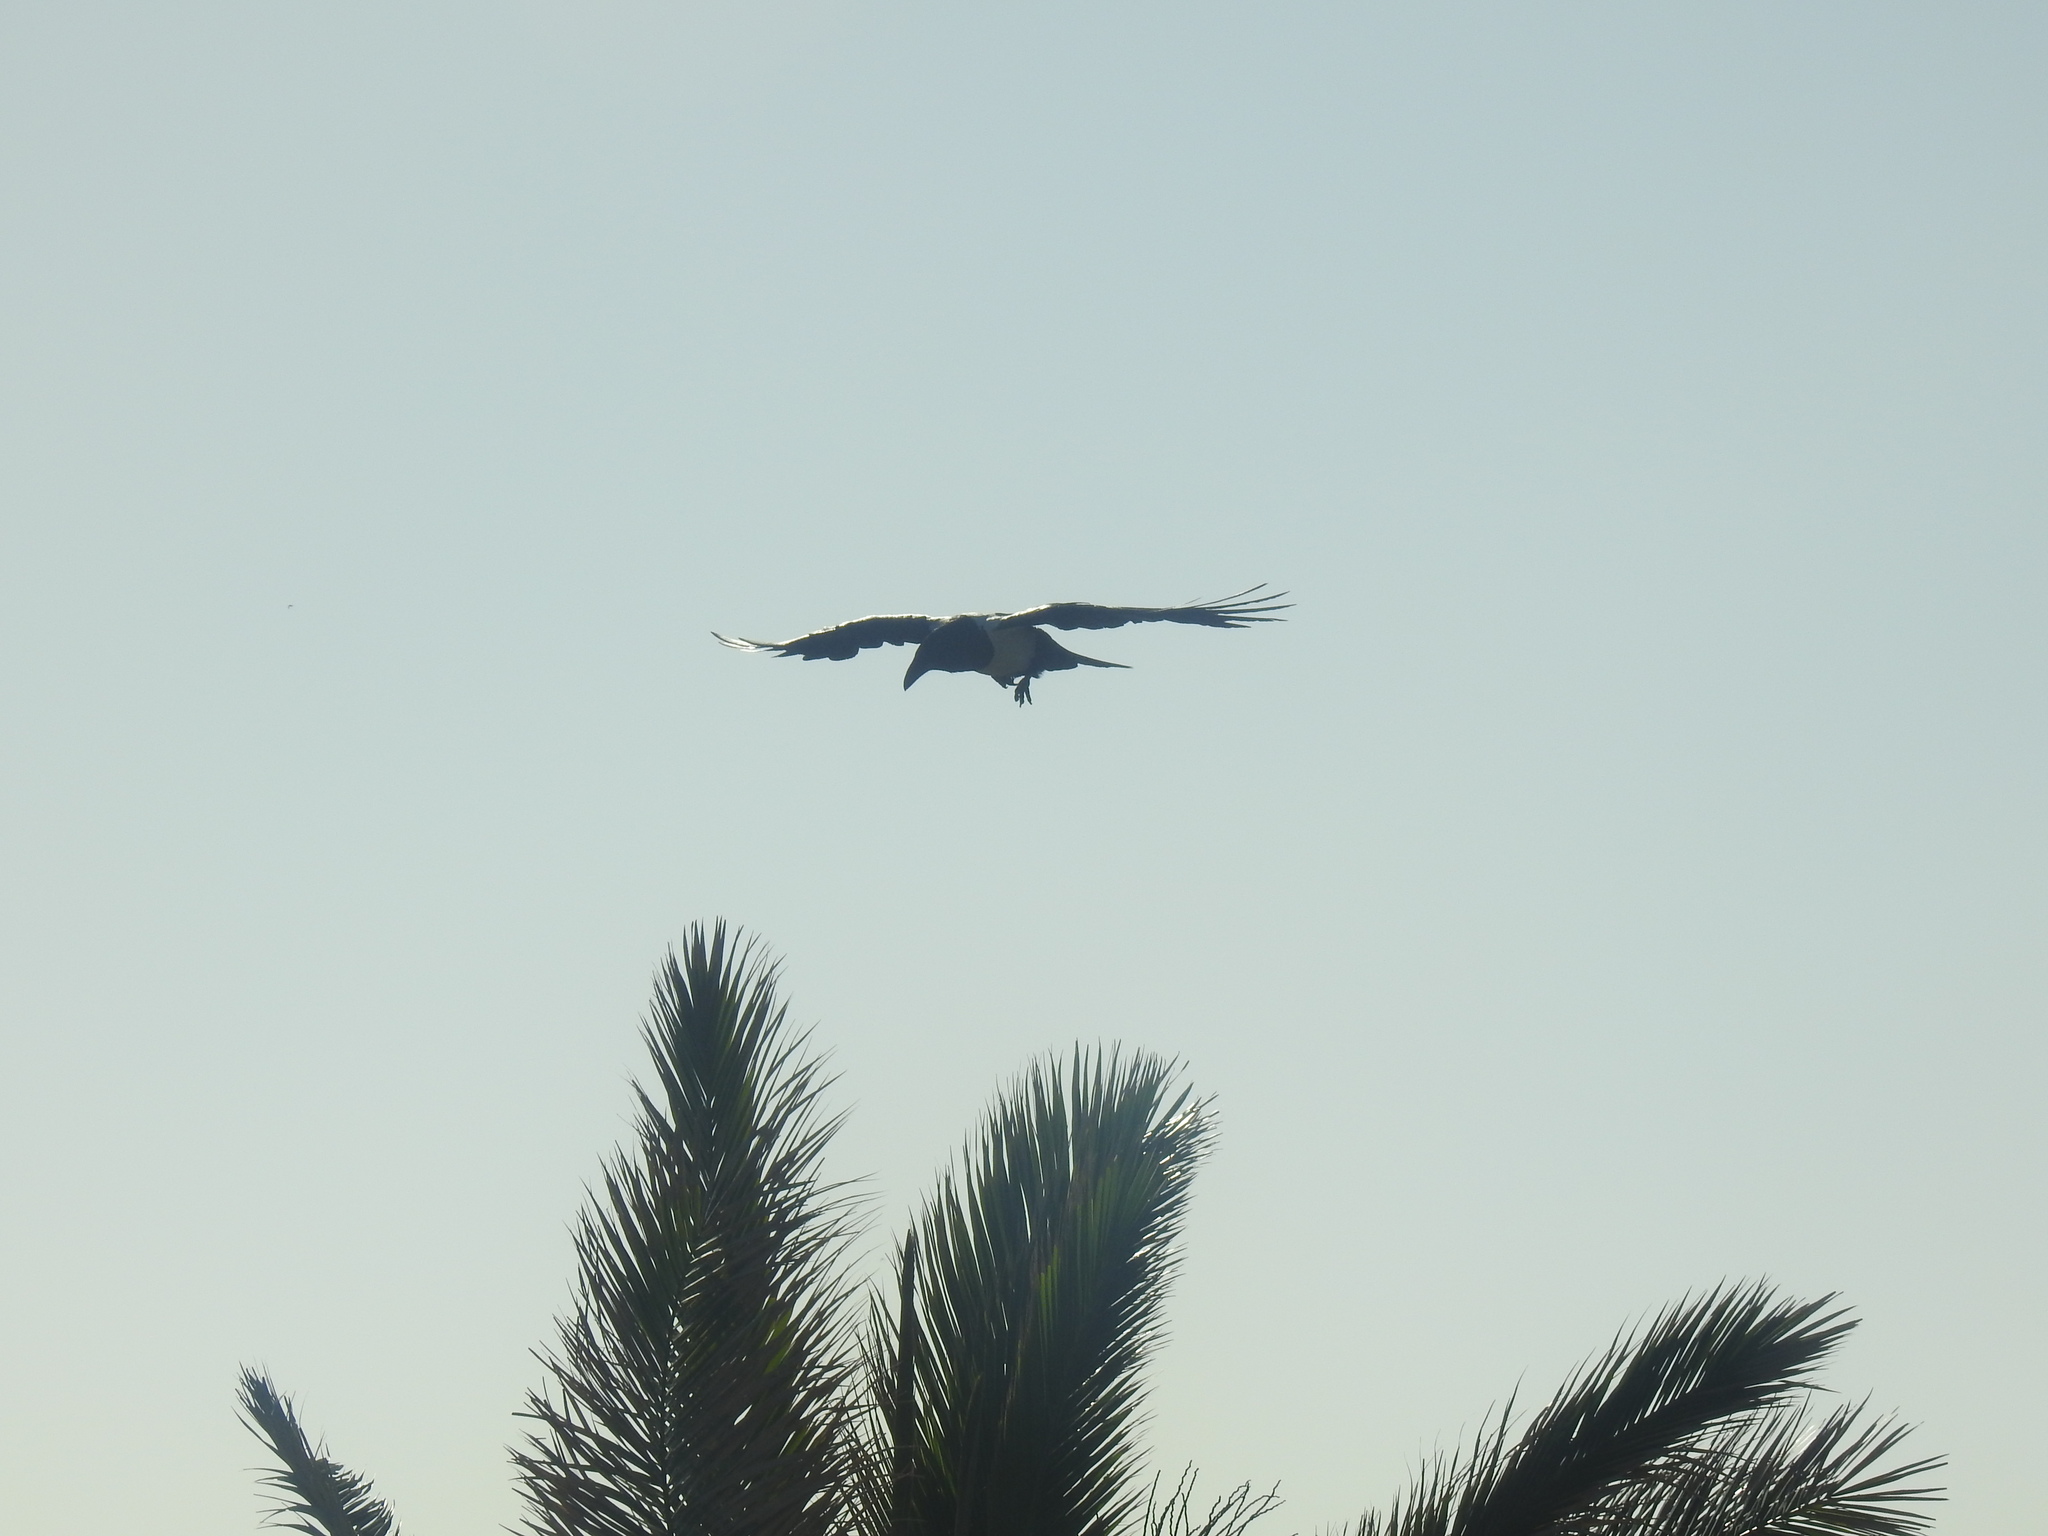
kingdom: Animalia
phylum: Chordata
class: Aves
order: Passeriformes
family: Corvidae
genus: Corvus
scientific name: Corvus albus
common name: Pied crow
